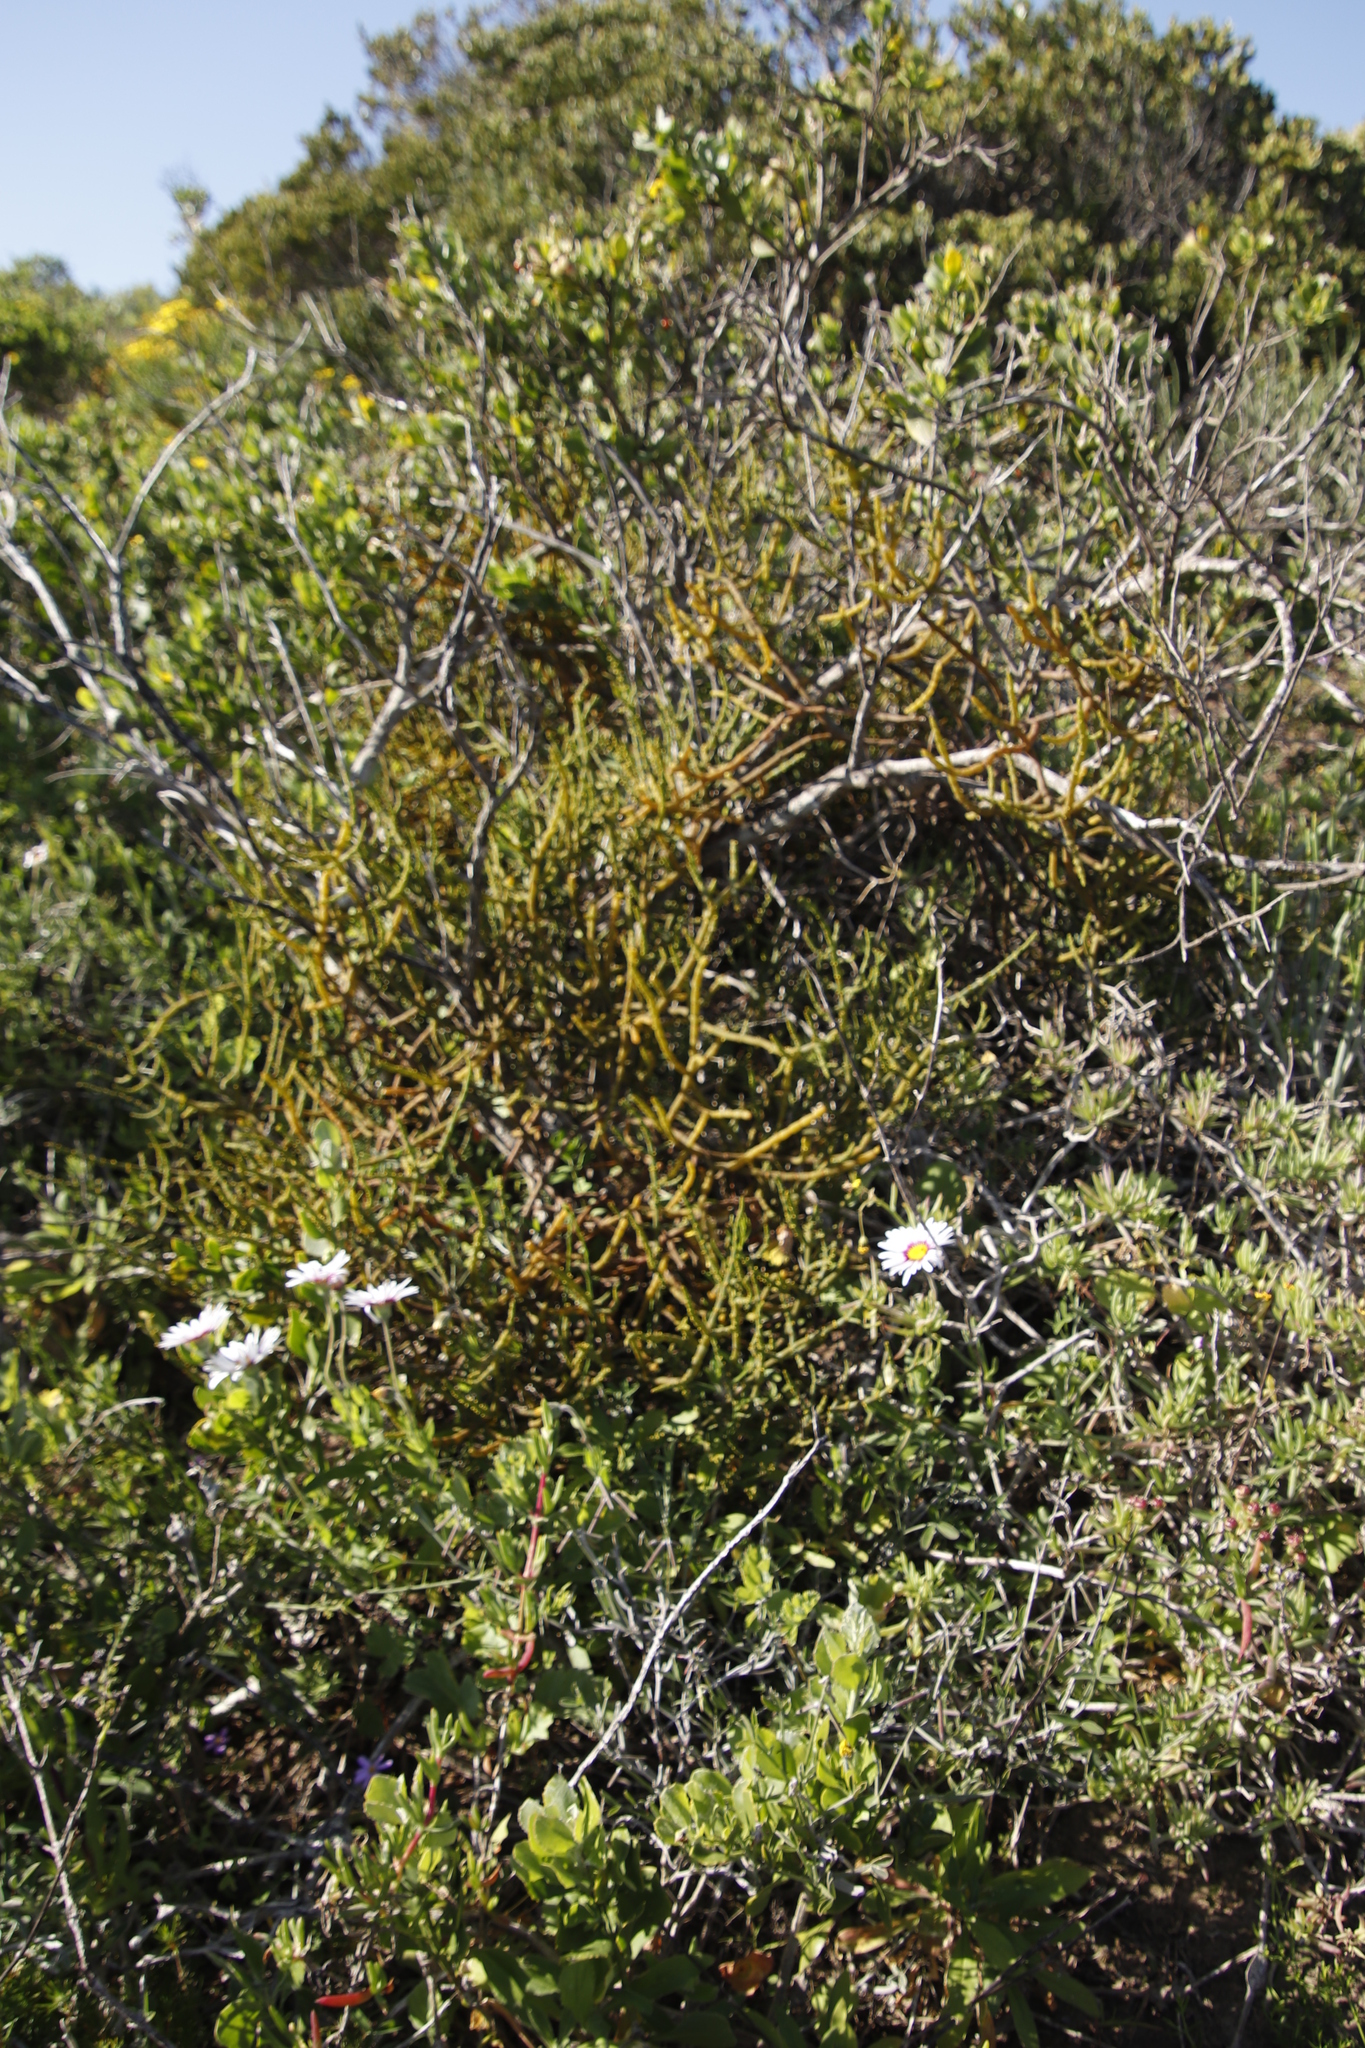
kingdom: Plantae
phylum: Tracheophyta
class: Magnoliopsida
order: Santalales
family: Viscaceae
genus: Viscum
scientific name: Viscum capense
